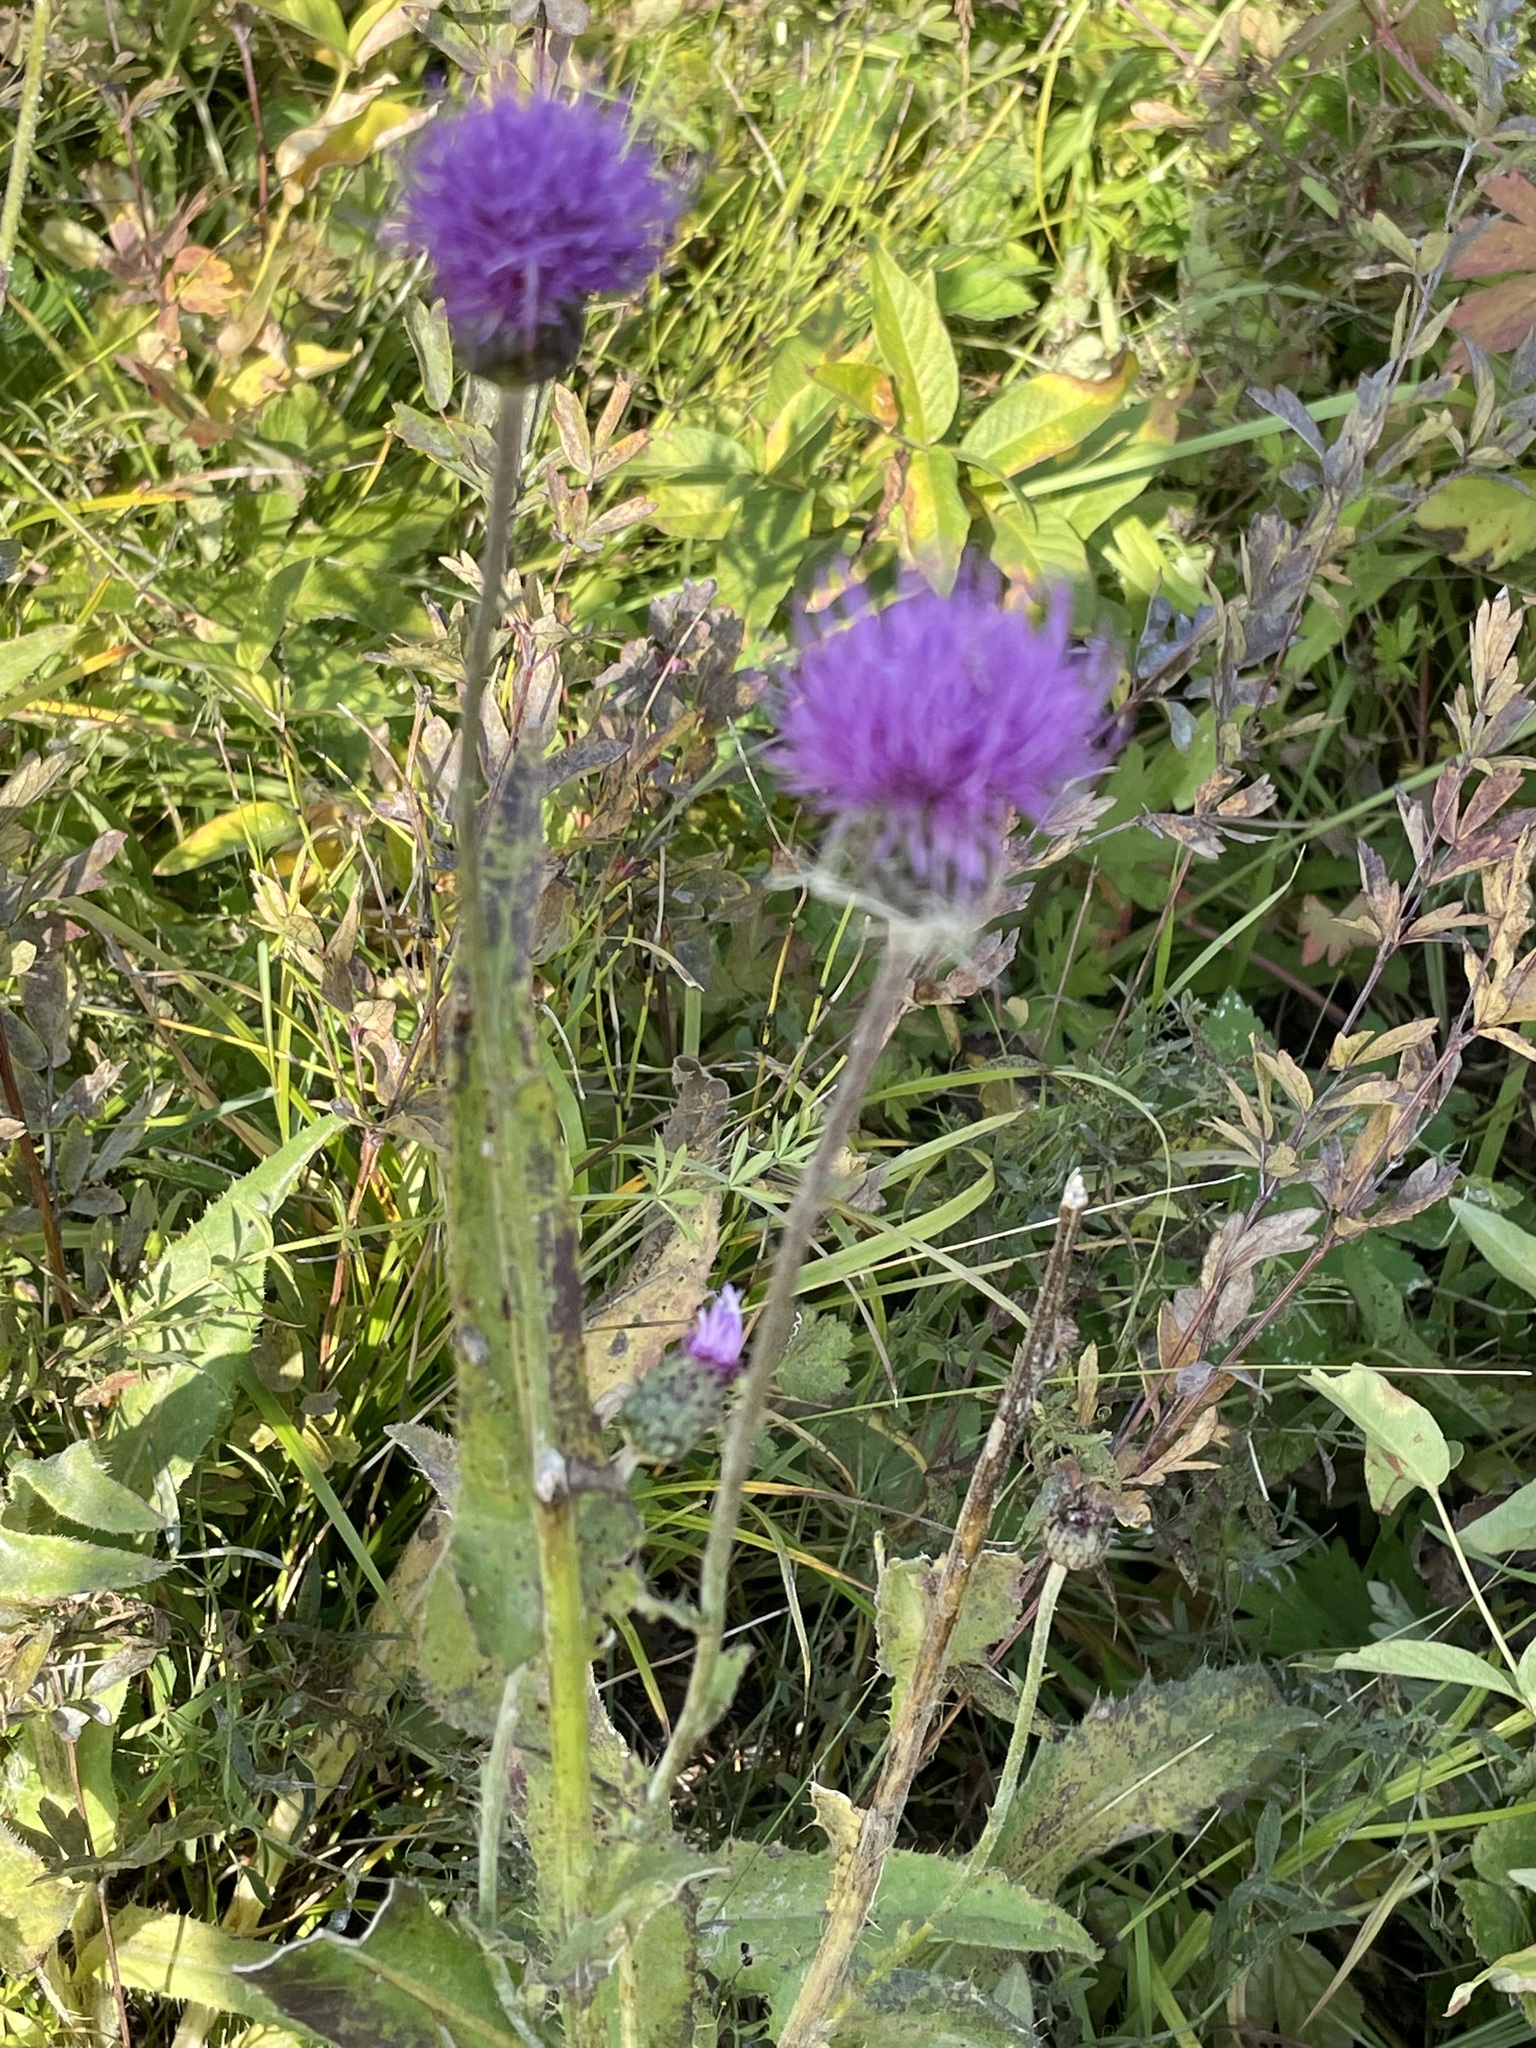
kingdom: Plantae
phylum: Tracheophyta
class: Magnoliopsida
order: Asterales
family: Asteraceae
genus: Cirsium
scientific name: Cirsium canum
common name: Queen anne's thistle
